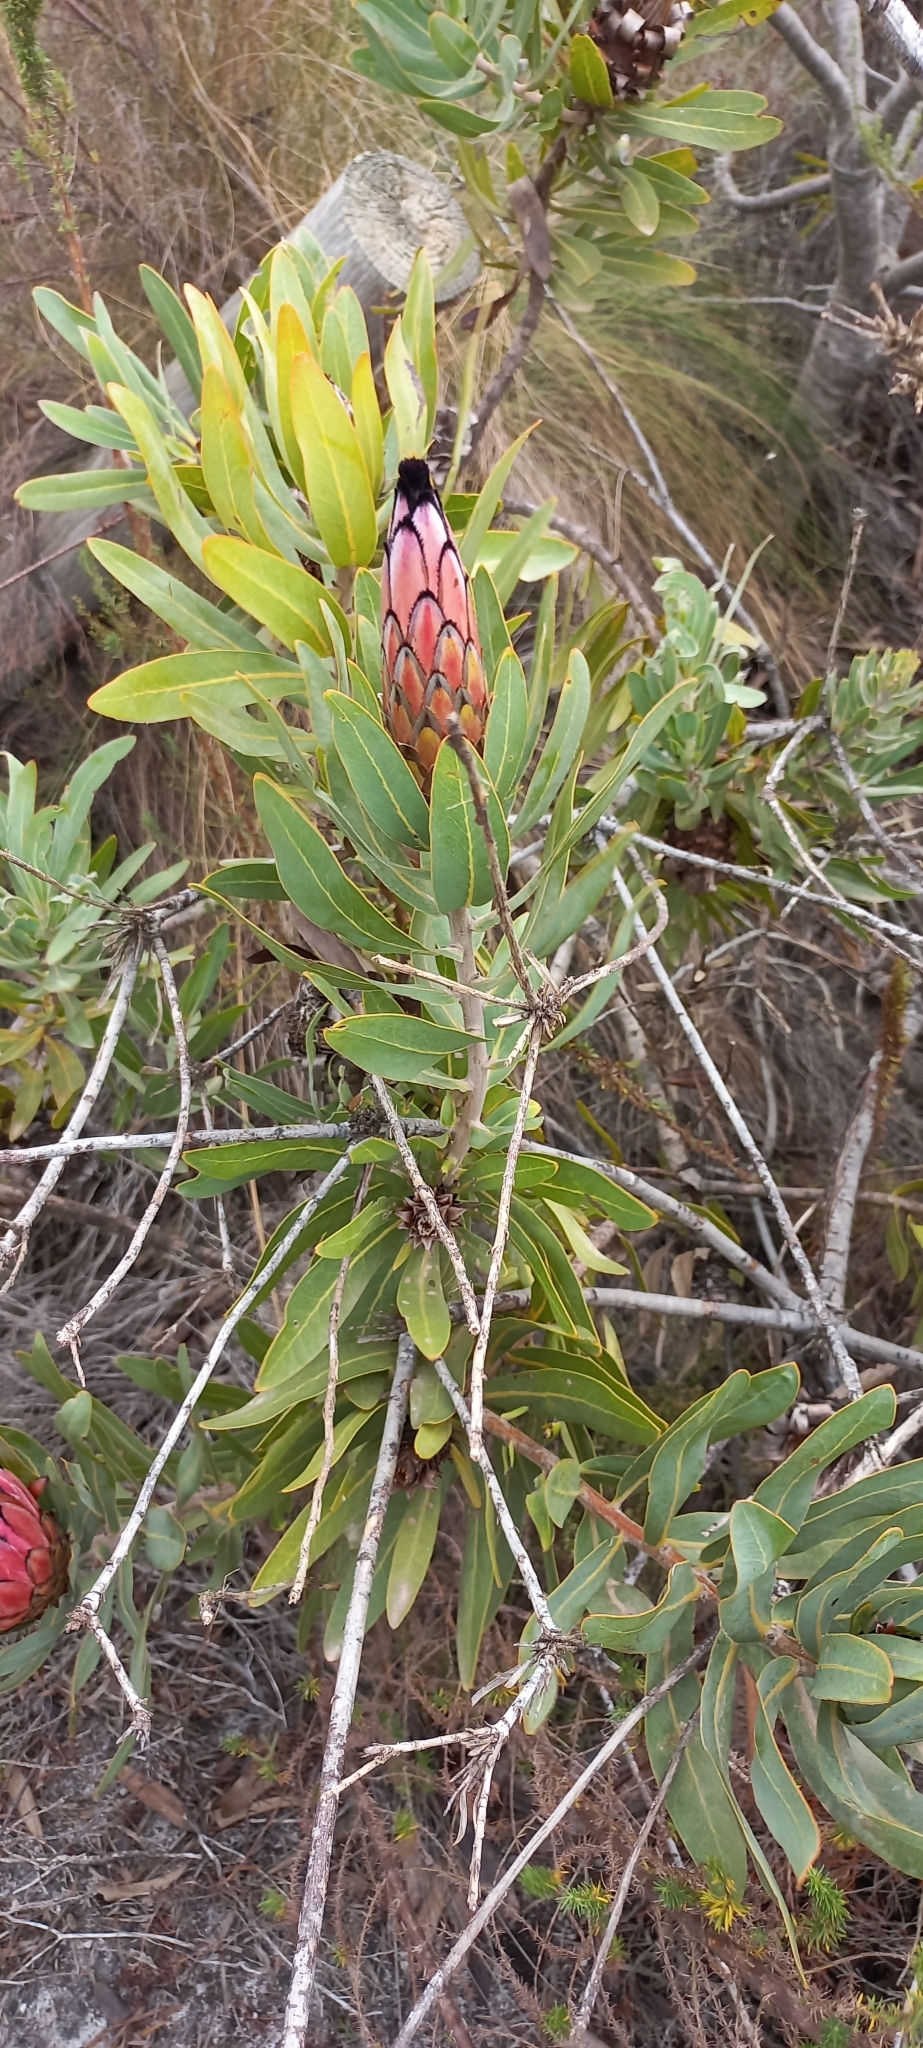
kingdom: Plantae
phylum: Tracheophyta
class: Magnoliopsida
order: Proteales
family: Proteaceae
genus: Protea
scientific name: Protea
